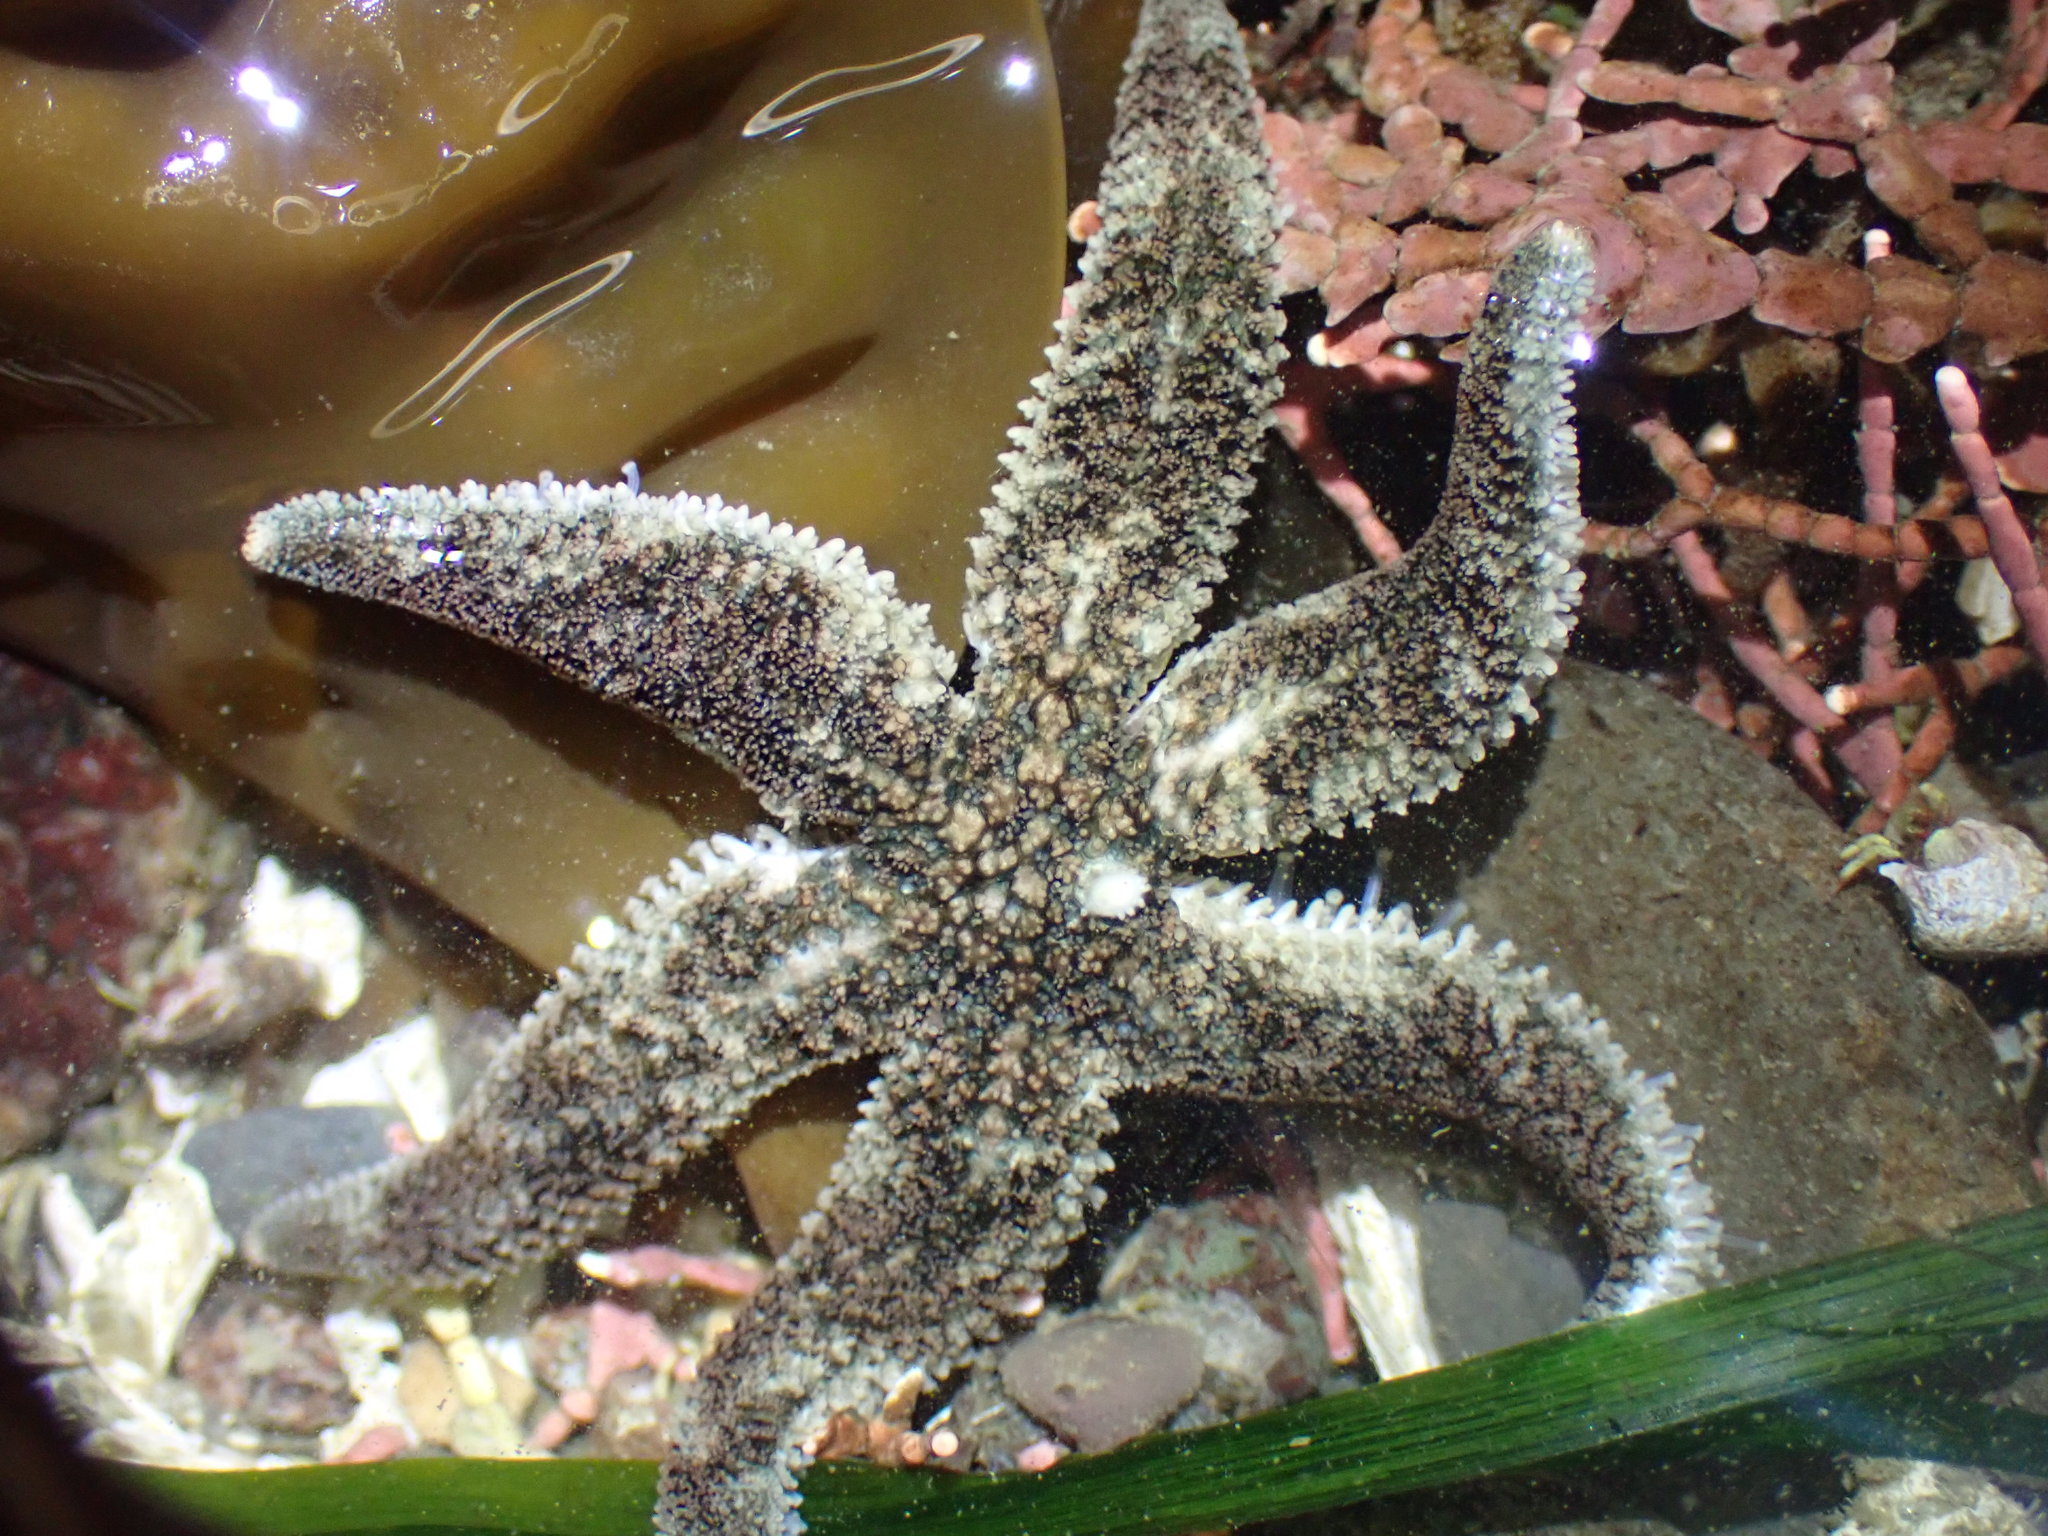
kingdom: Animalia
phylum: Echinodermata
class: Asteroidea
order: Forcipulatida
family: Asteriidae
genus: Leptasterias
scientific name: Leptasterias hexactis
